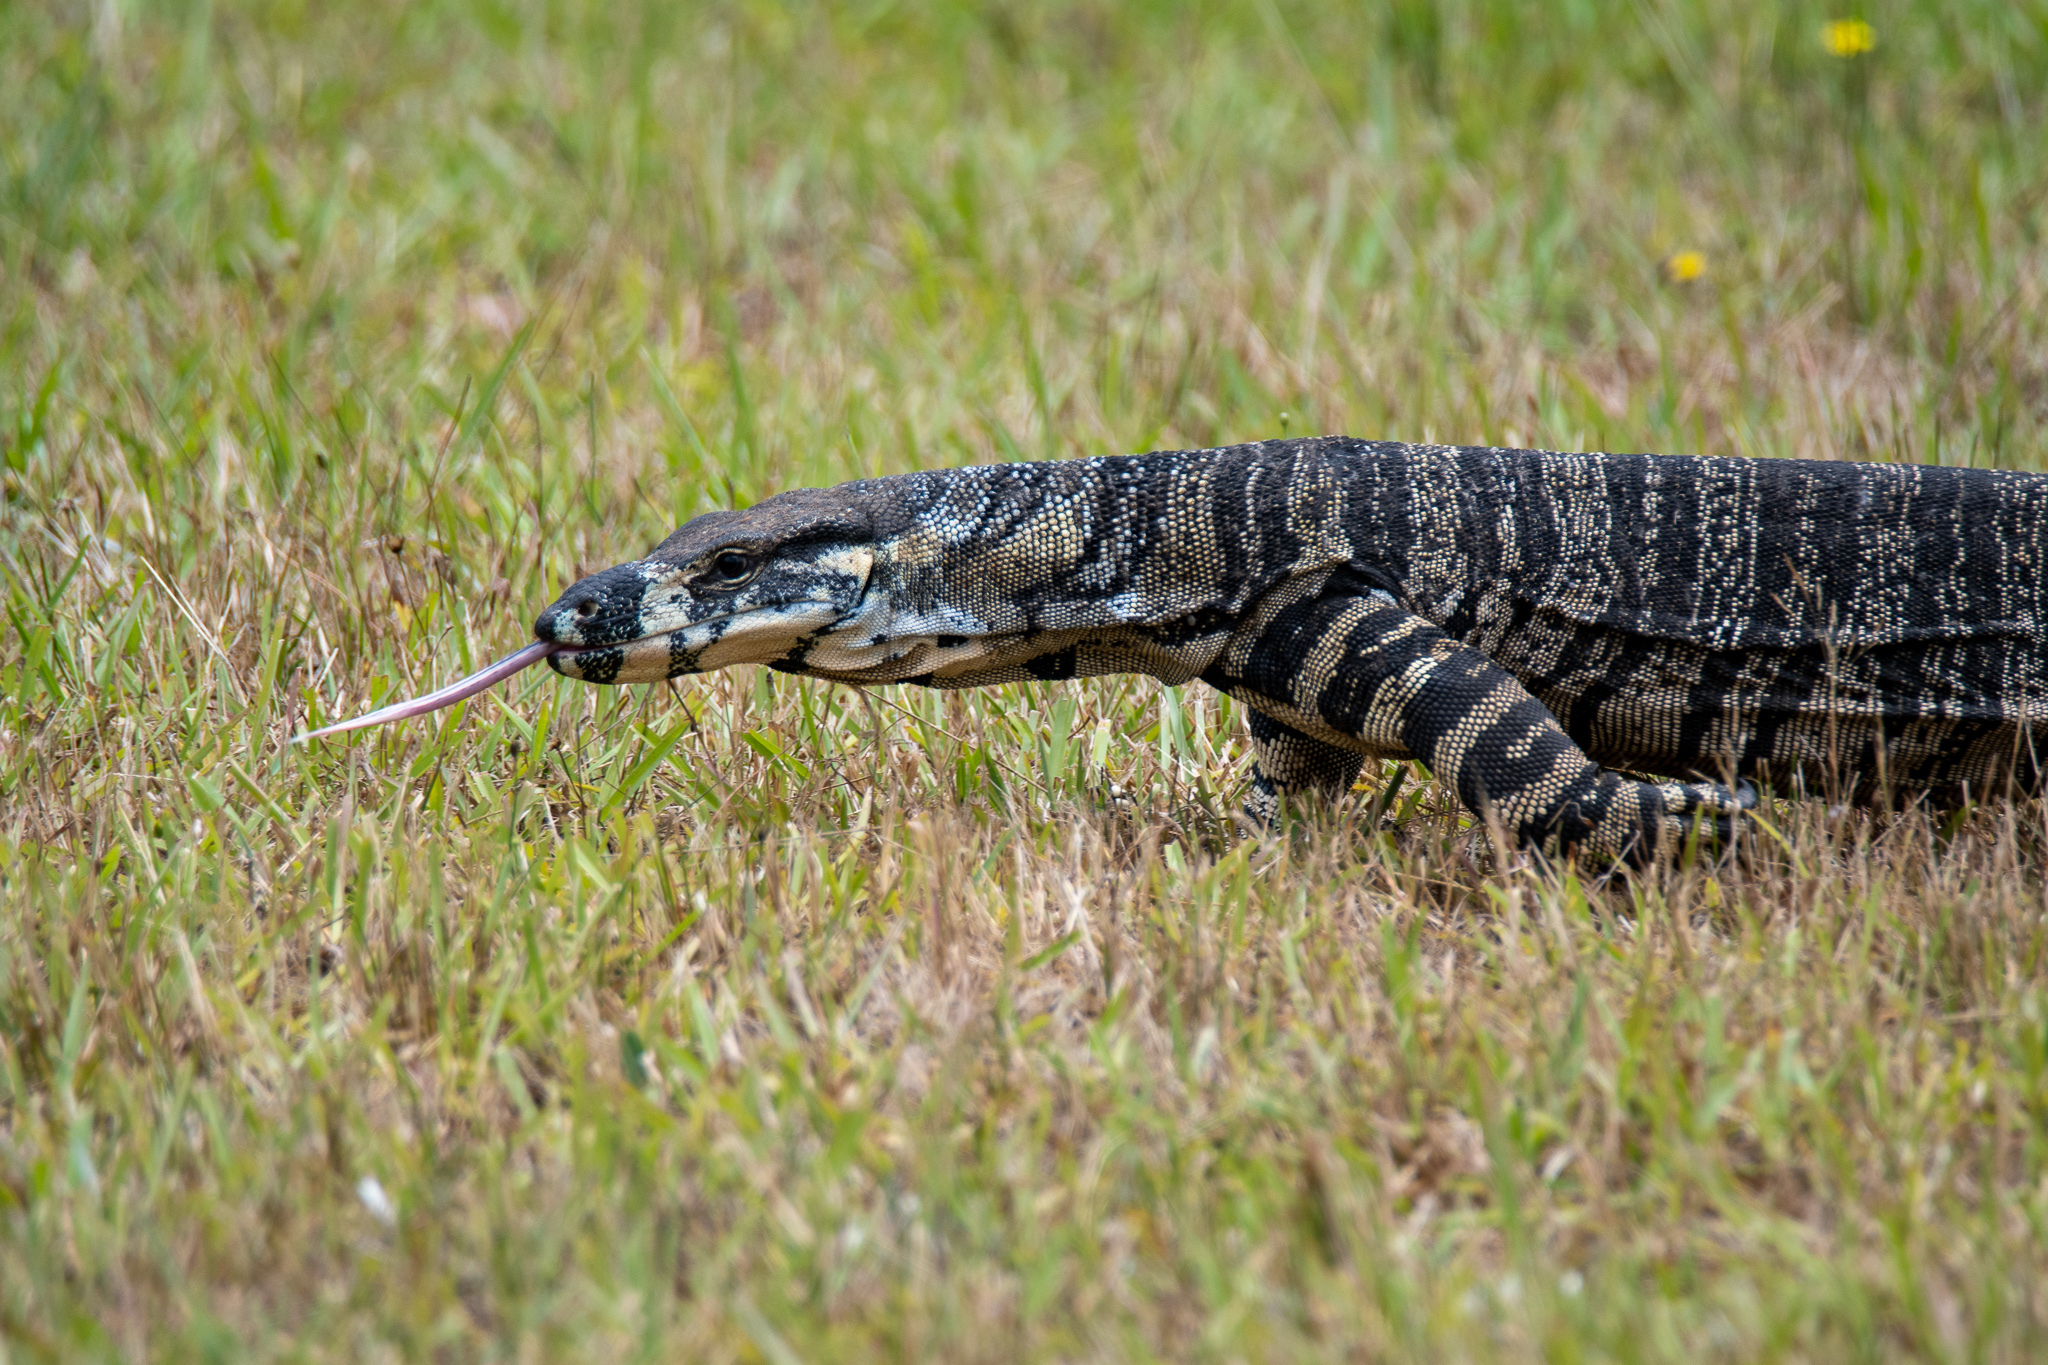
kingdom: Animalia
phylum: Chordata
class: Squamata
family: Varanidae
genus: Varanus
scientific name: Varanus varius
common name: Lace monitor
